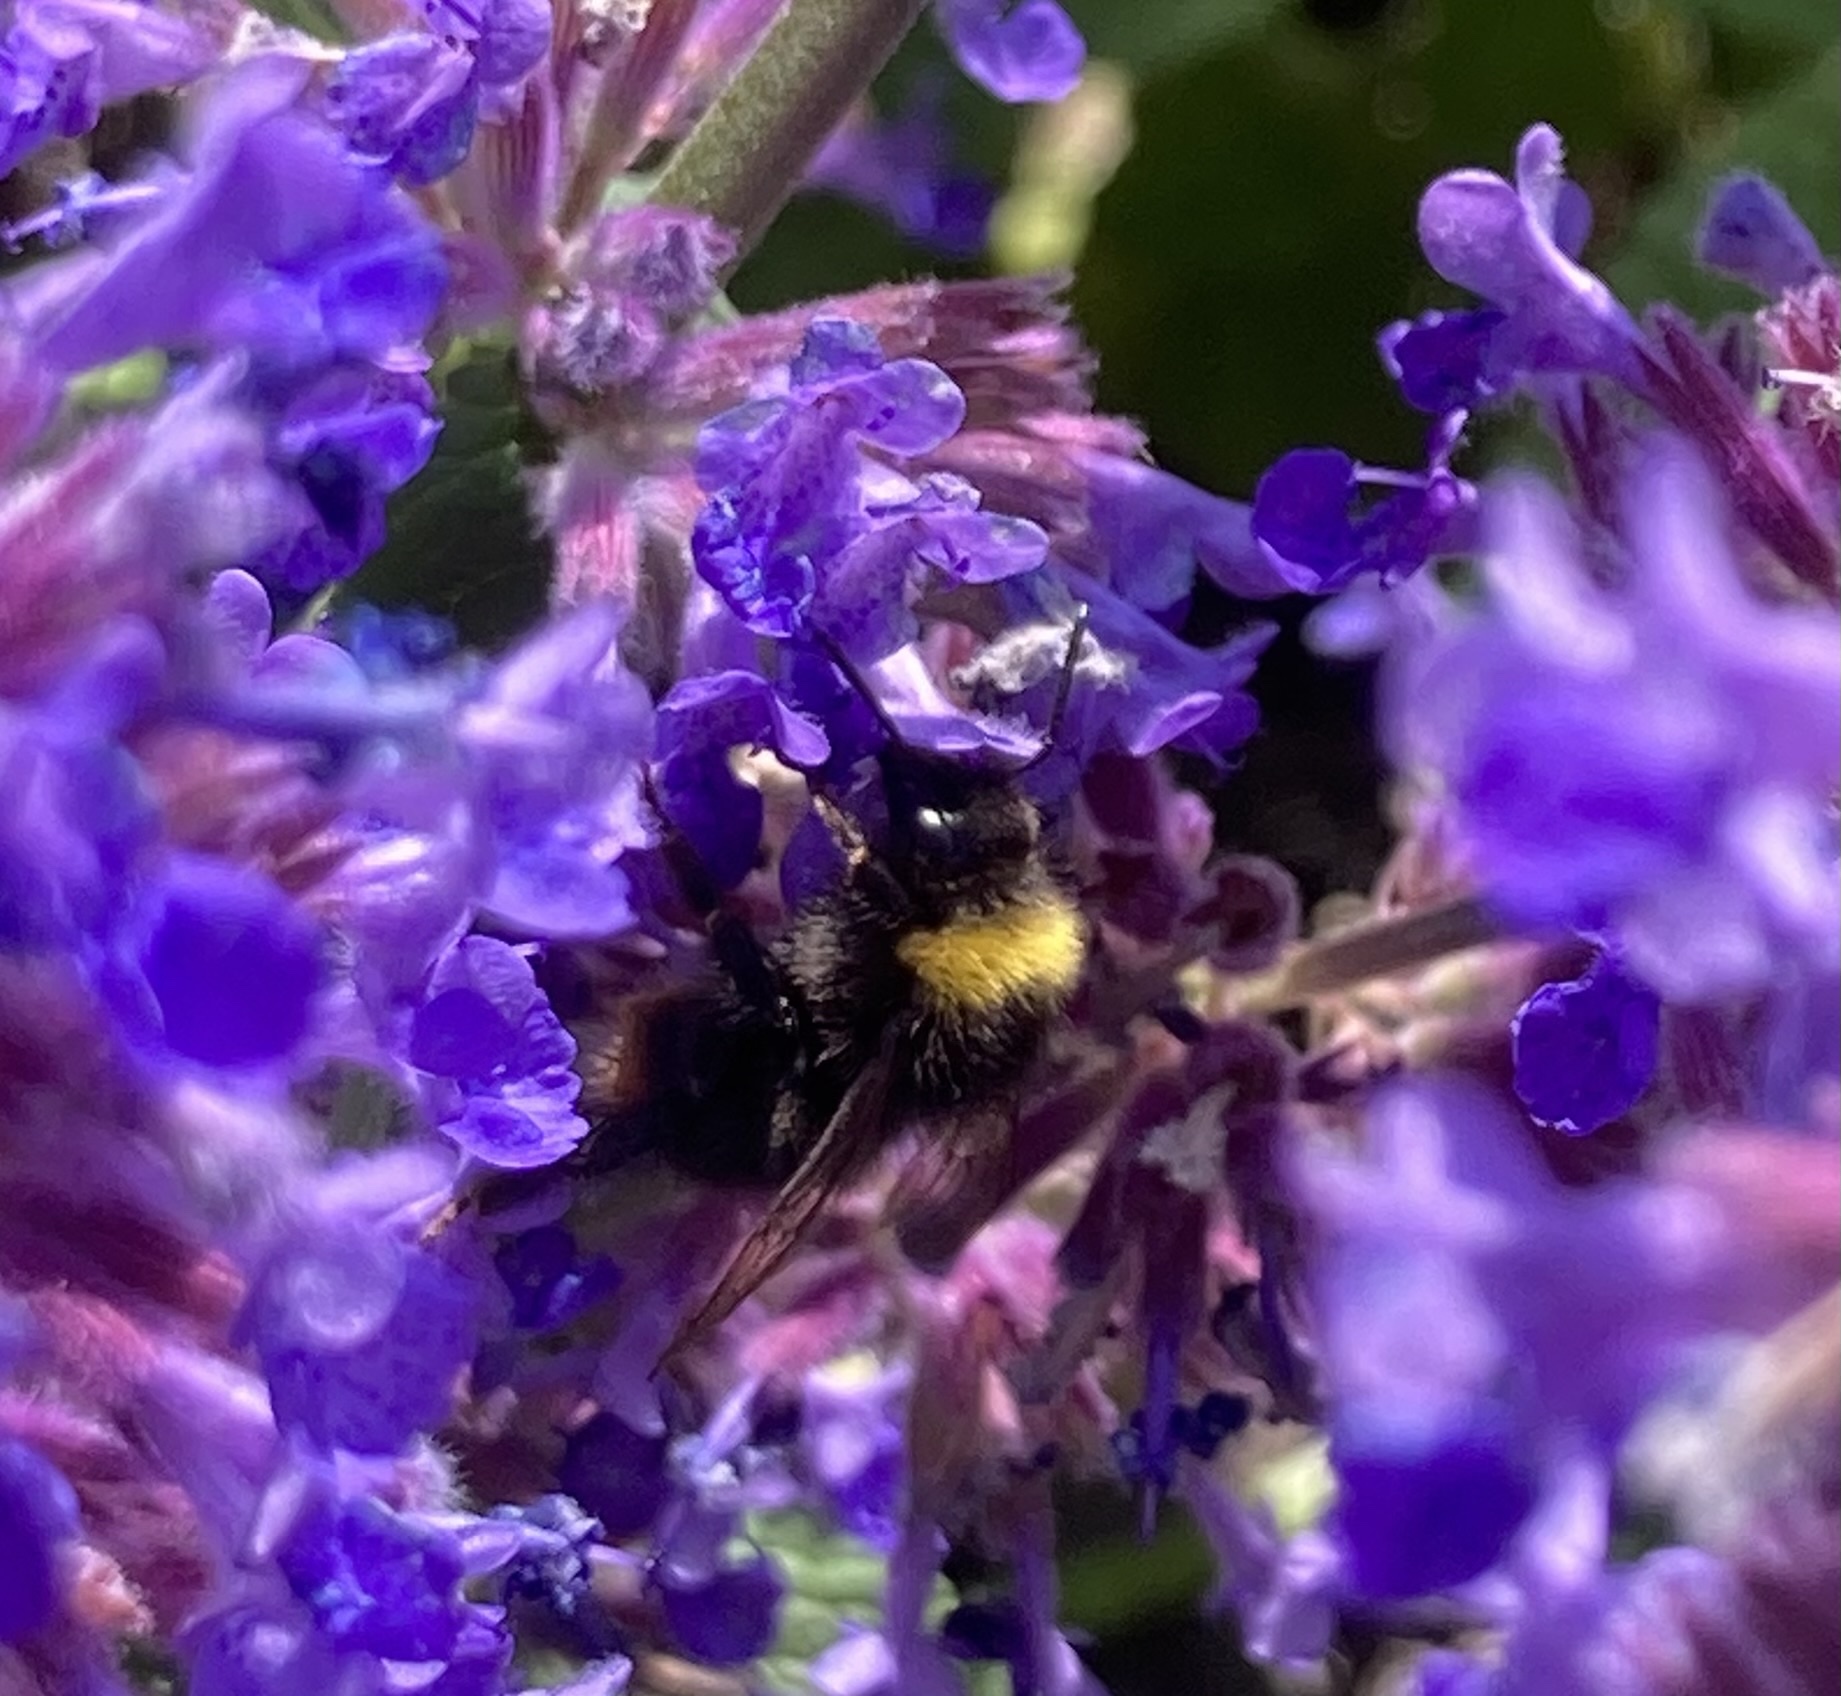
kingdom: Animalia
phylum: Arthropoda
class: Insecta
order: Hymenoptera
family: Apidae
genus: Bombus
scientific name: Bombus pratorum
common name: Early humble-bee
